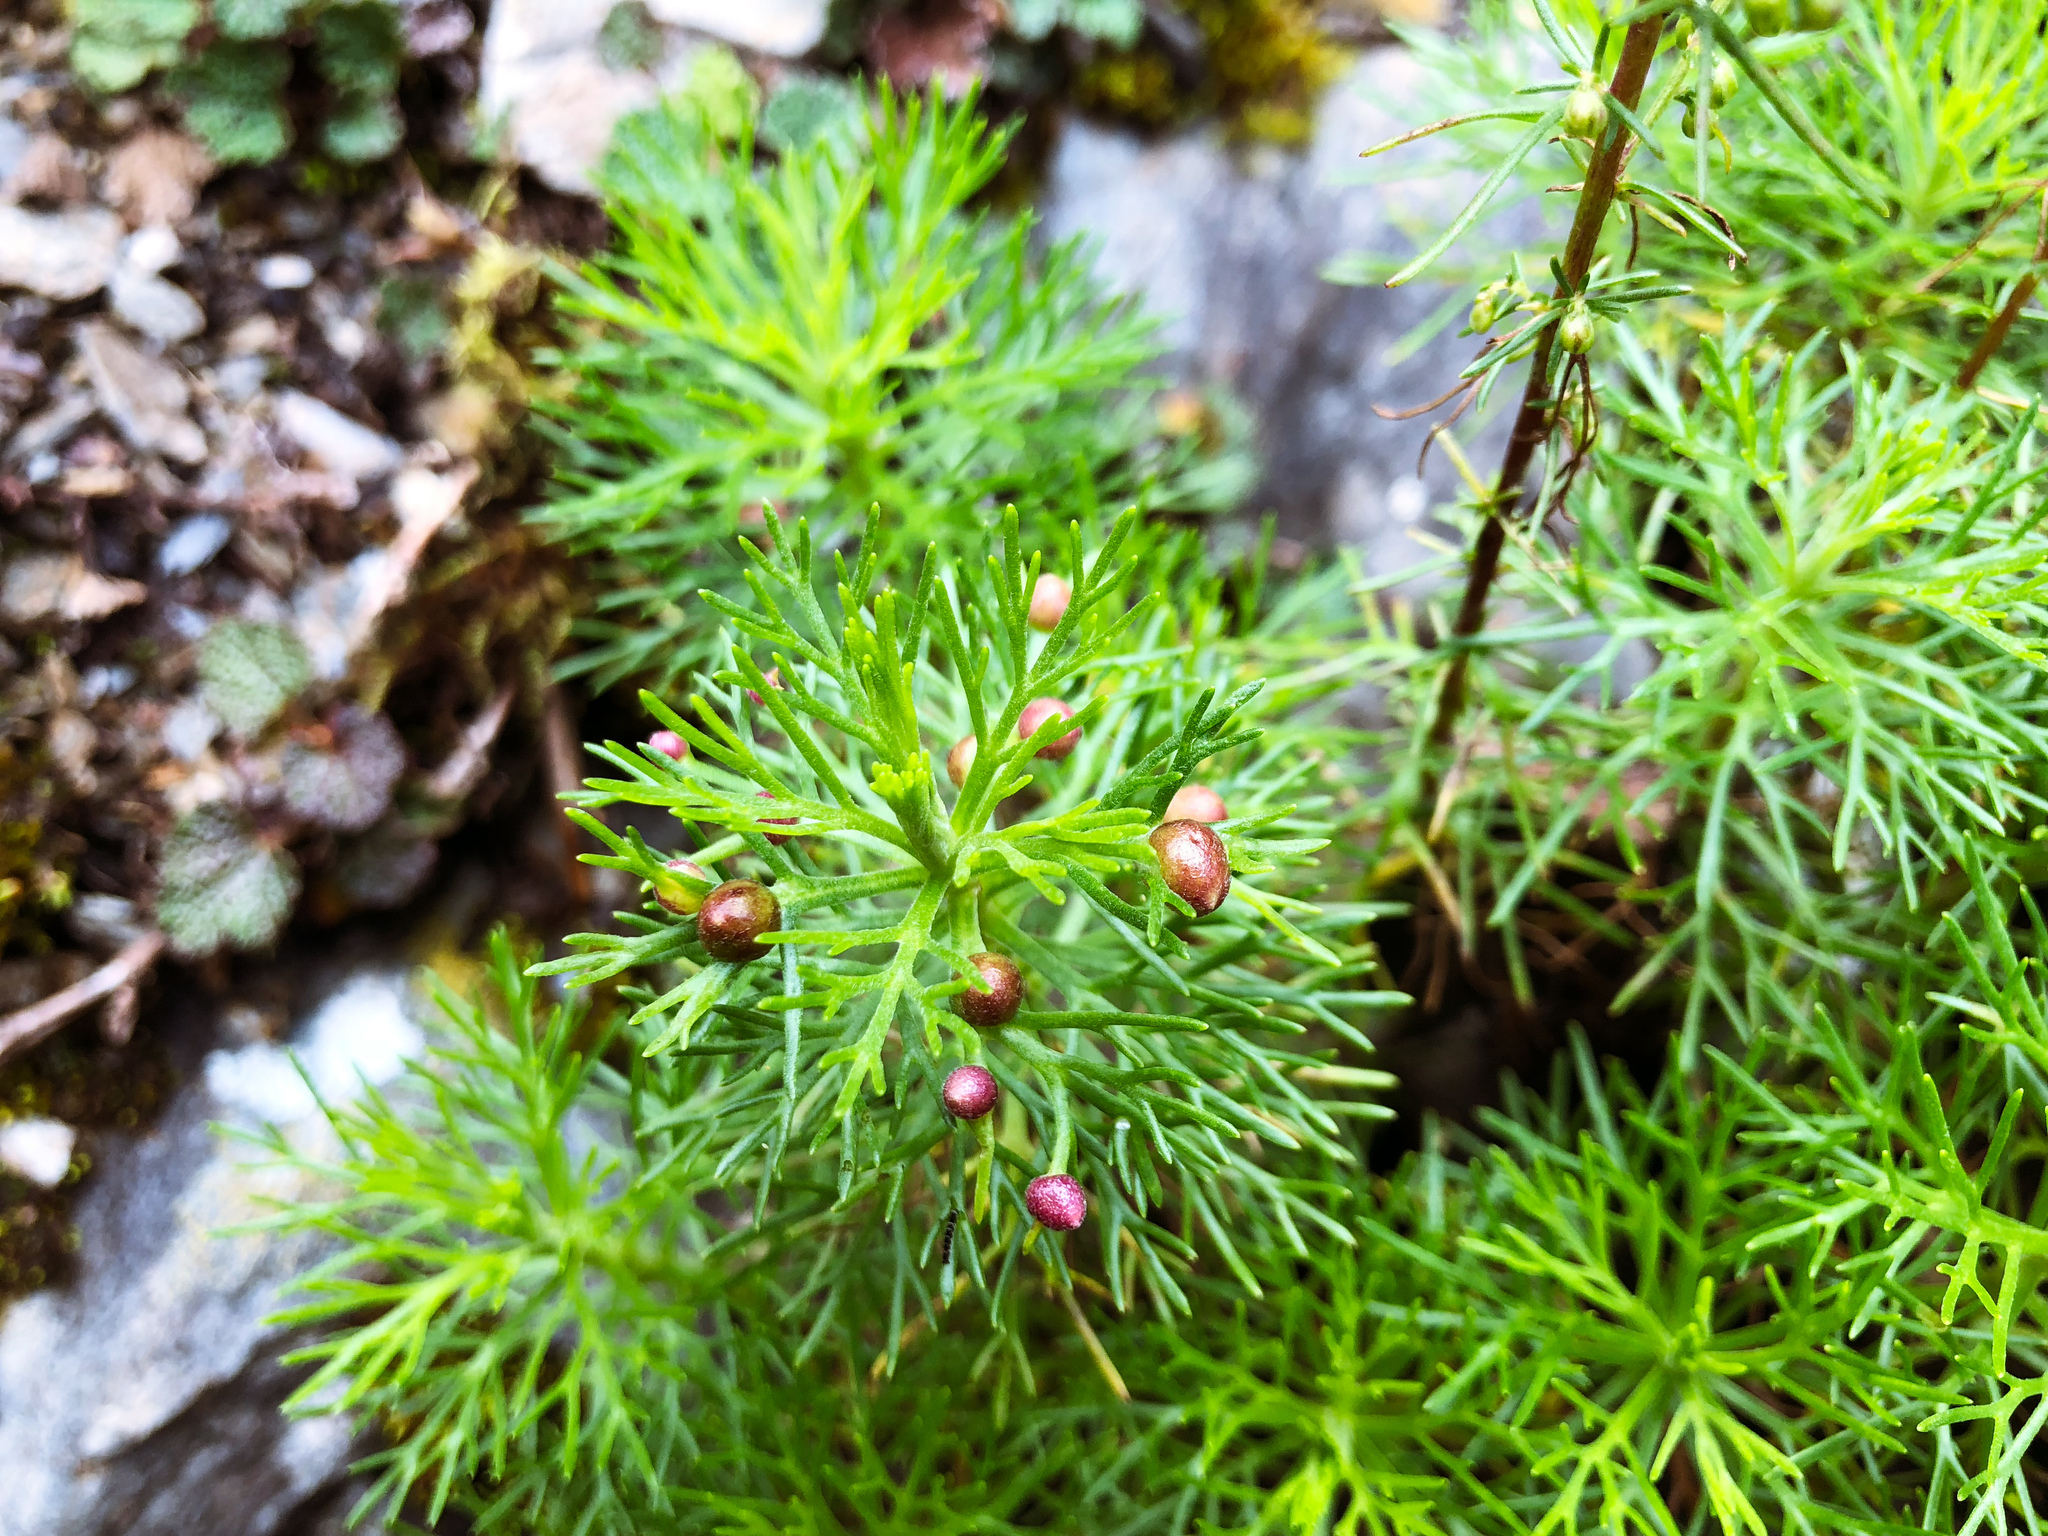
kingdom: Plantae
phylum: Tracheophyta
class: Magnoliopsida
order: Asterales
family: Asteraceae
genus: Artemisia
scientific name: Artemisia morrisonensis
